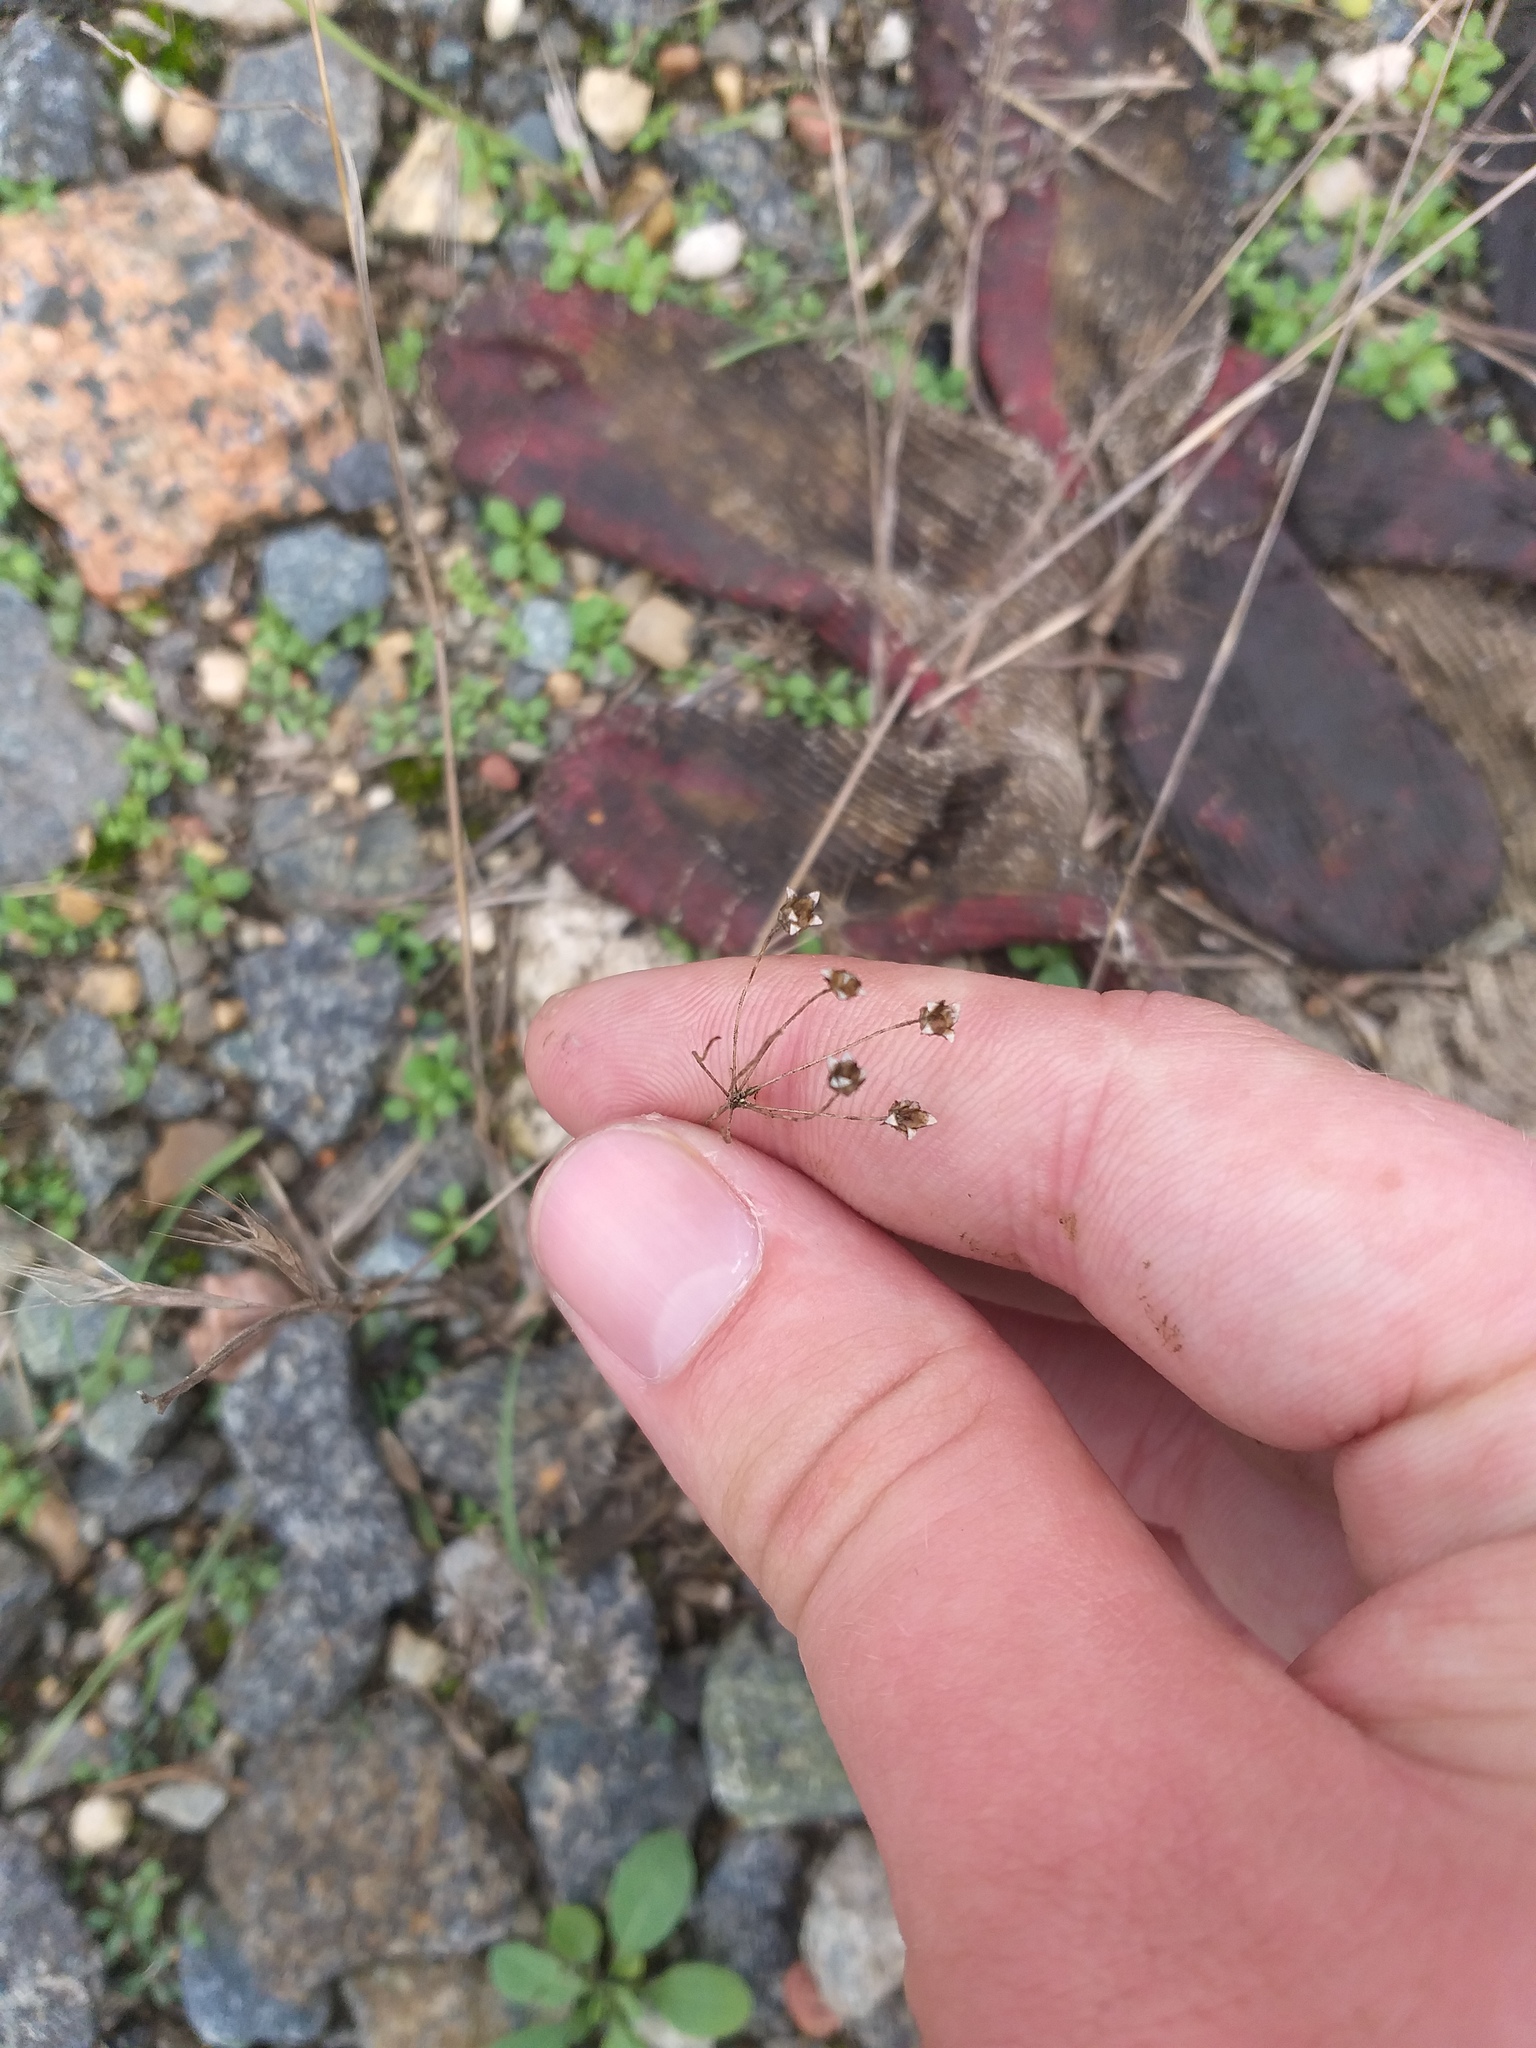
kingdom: Plantae
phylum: Tracheophyta
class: Magnoliopsida
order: Ericales
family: Primulaceae
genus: Androsace
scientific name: Androsace septentrionalis
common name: Hairy northern fairy-candelabra
